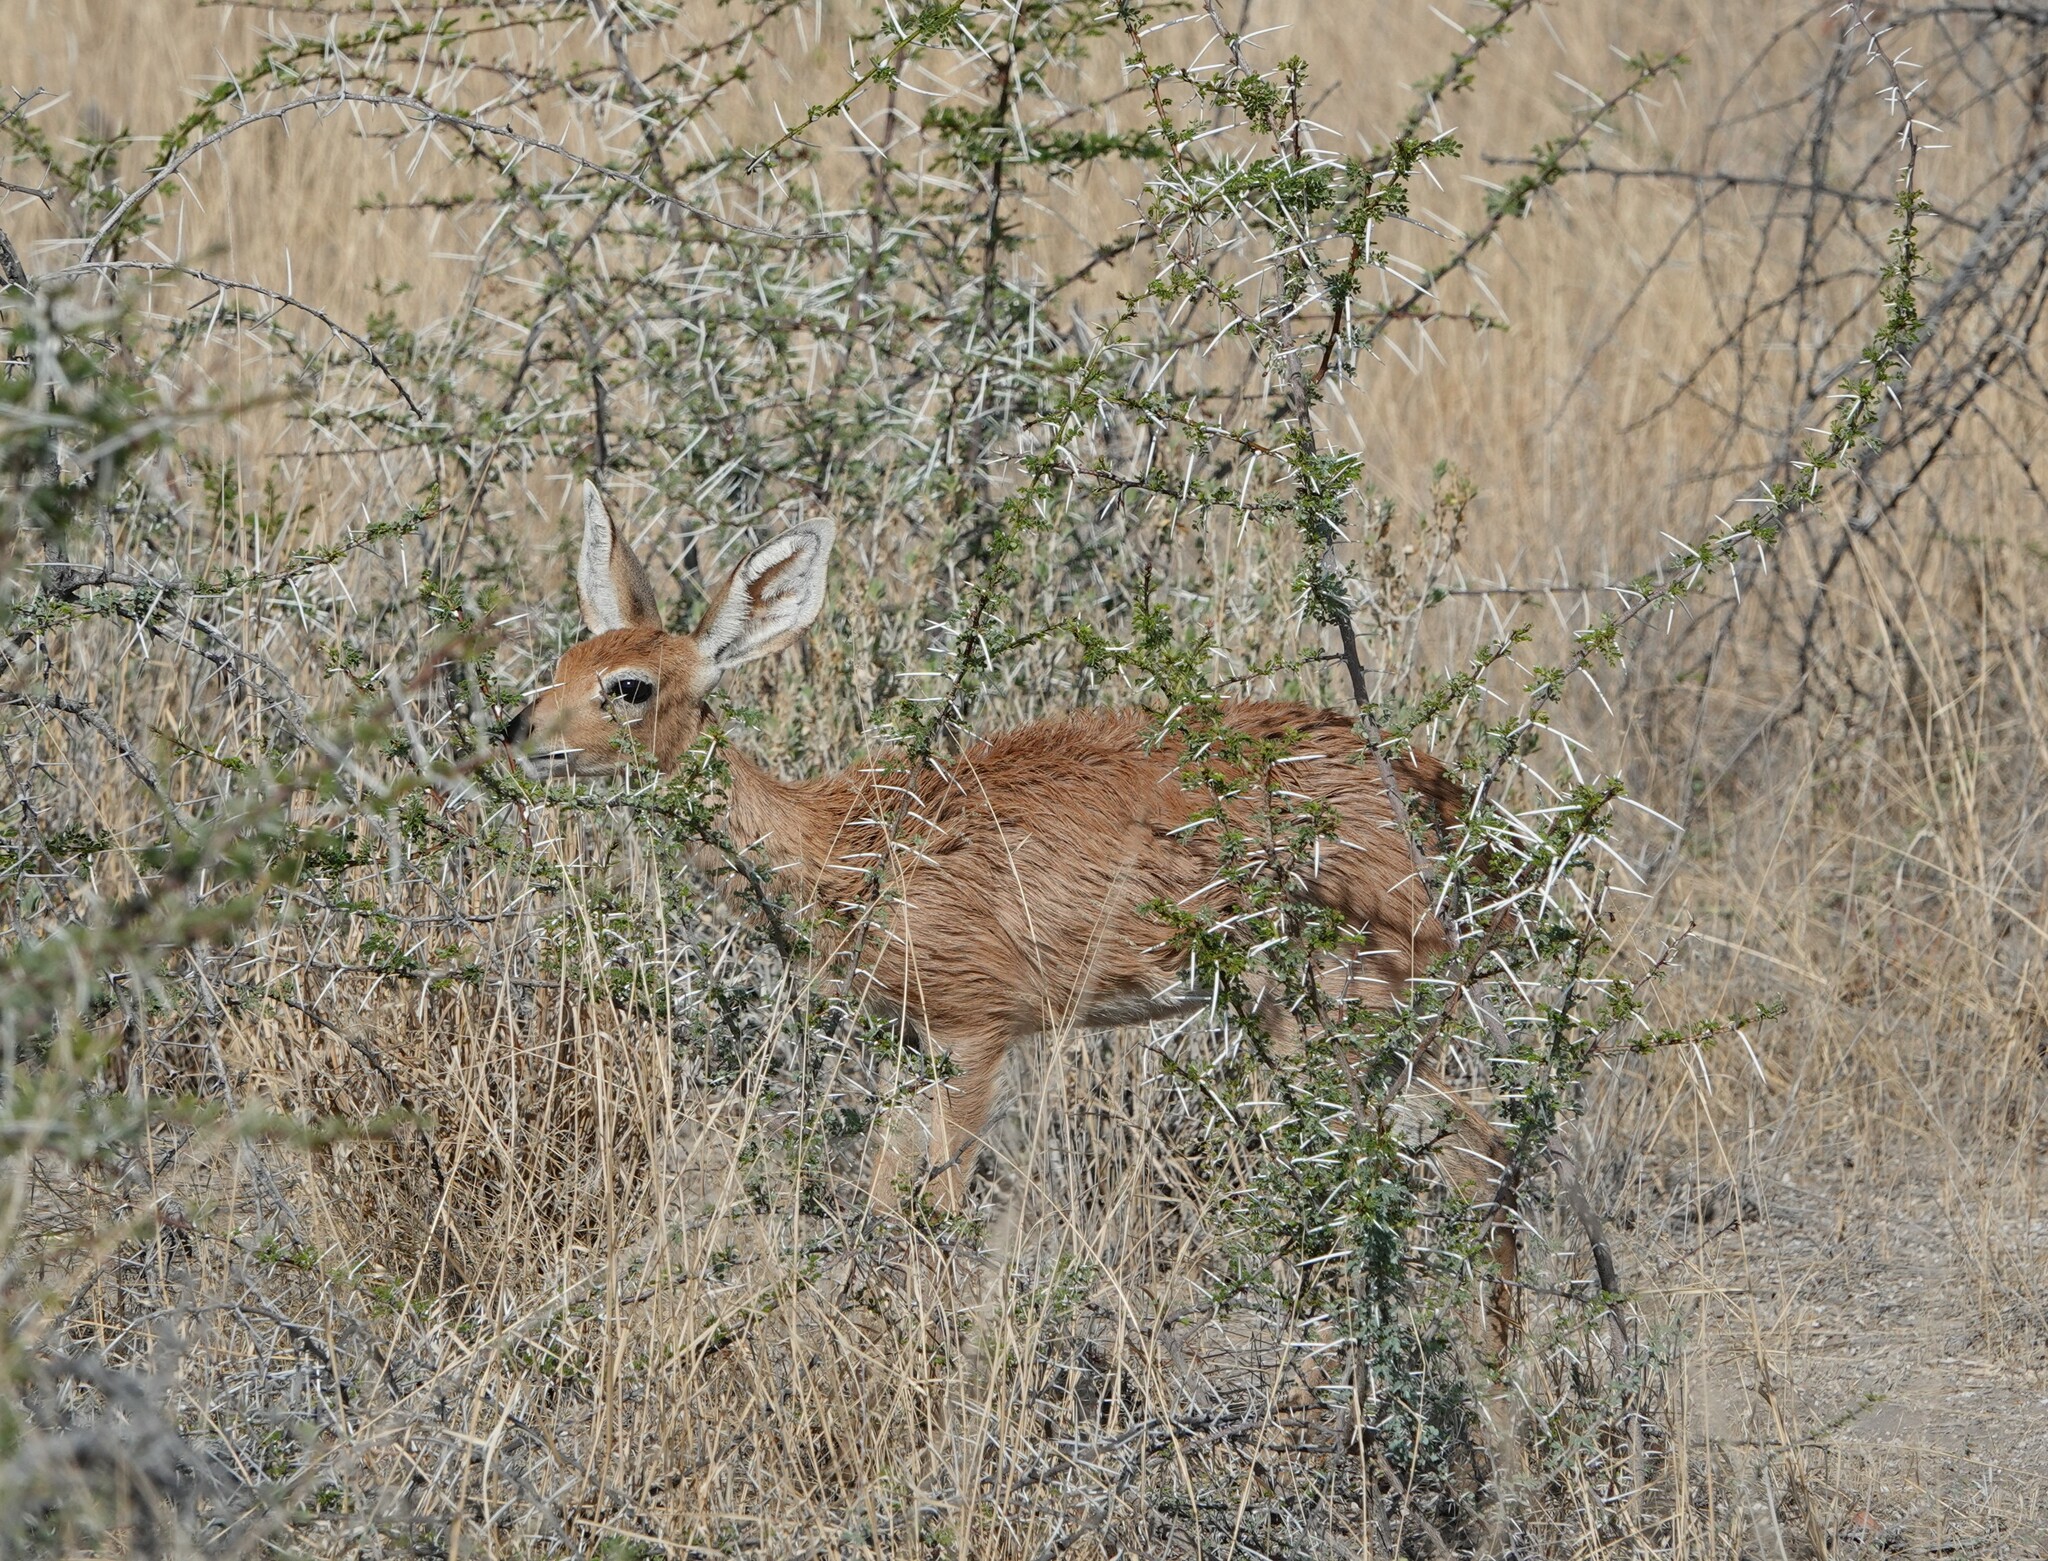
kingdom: Animalia
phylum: Chordata
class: Mammalia
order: Artiodactyla
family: Bovidae
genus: Raphicerus
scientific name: Raphicerus campestris
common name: Steenbok
